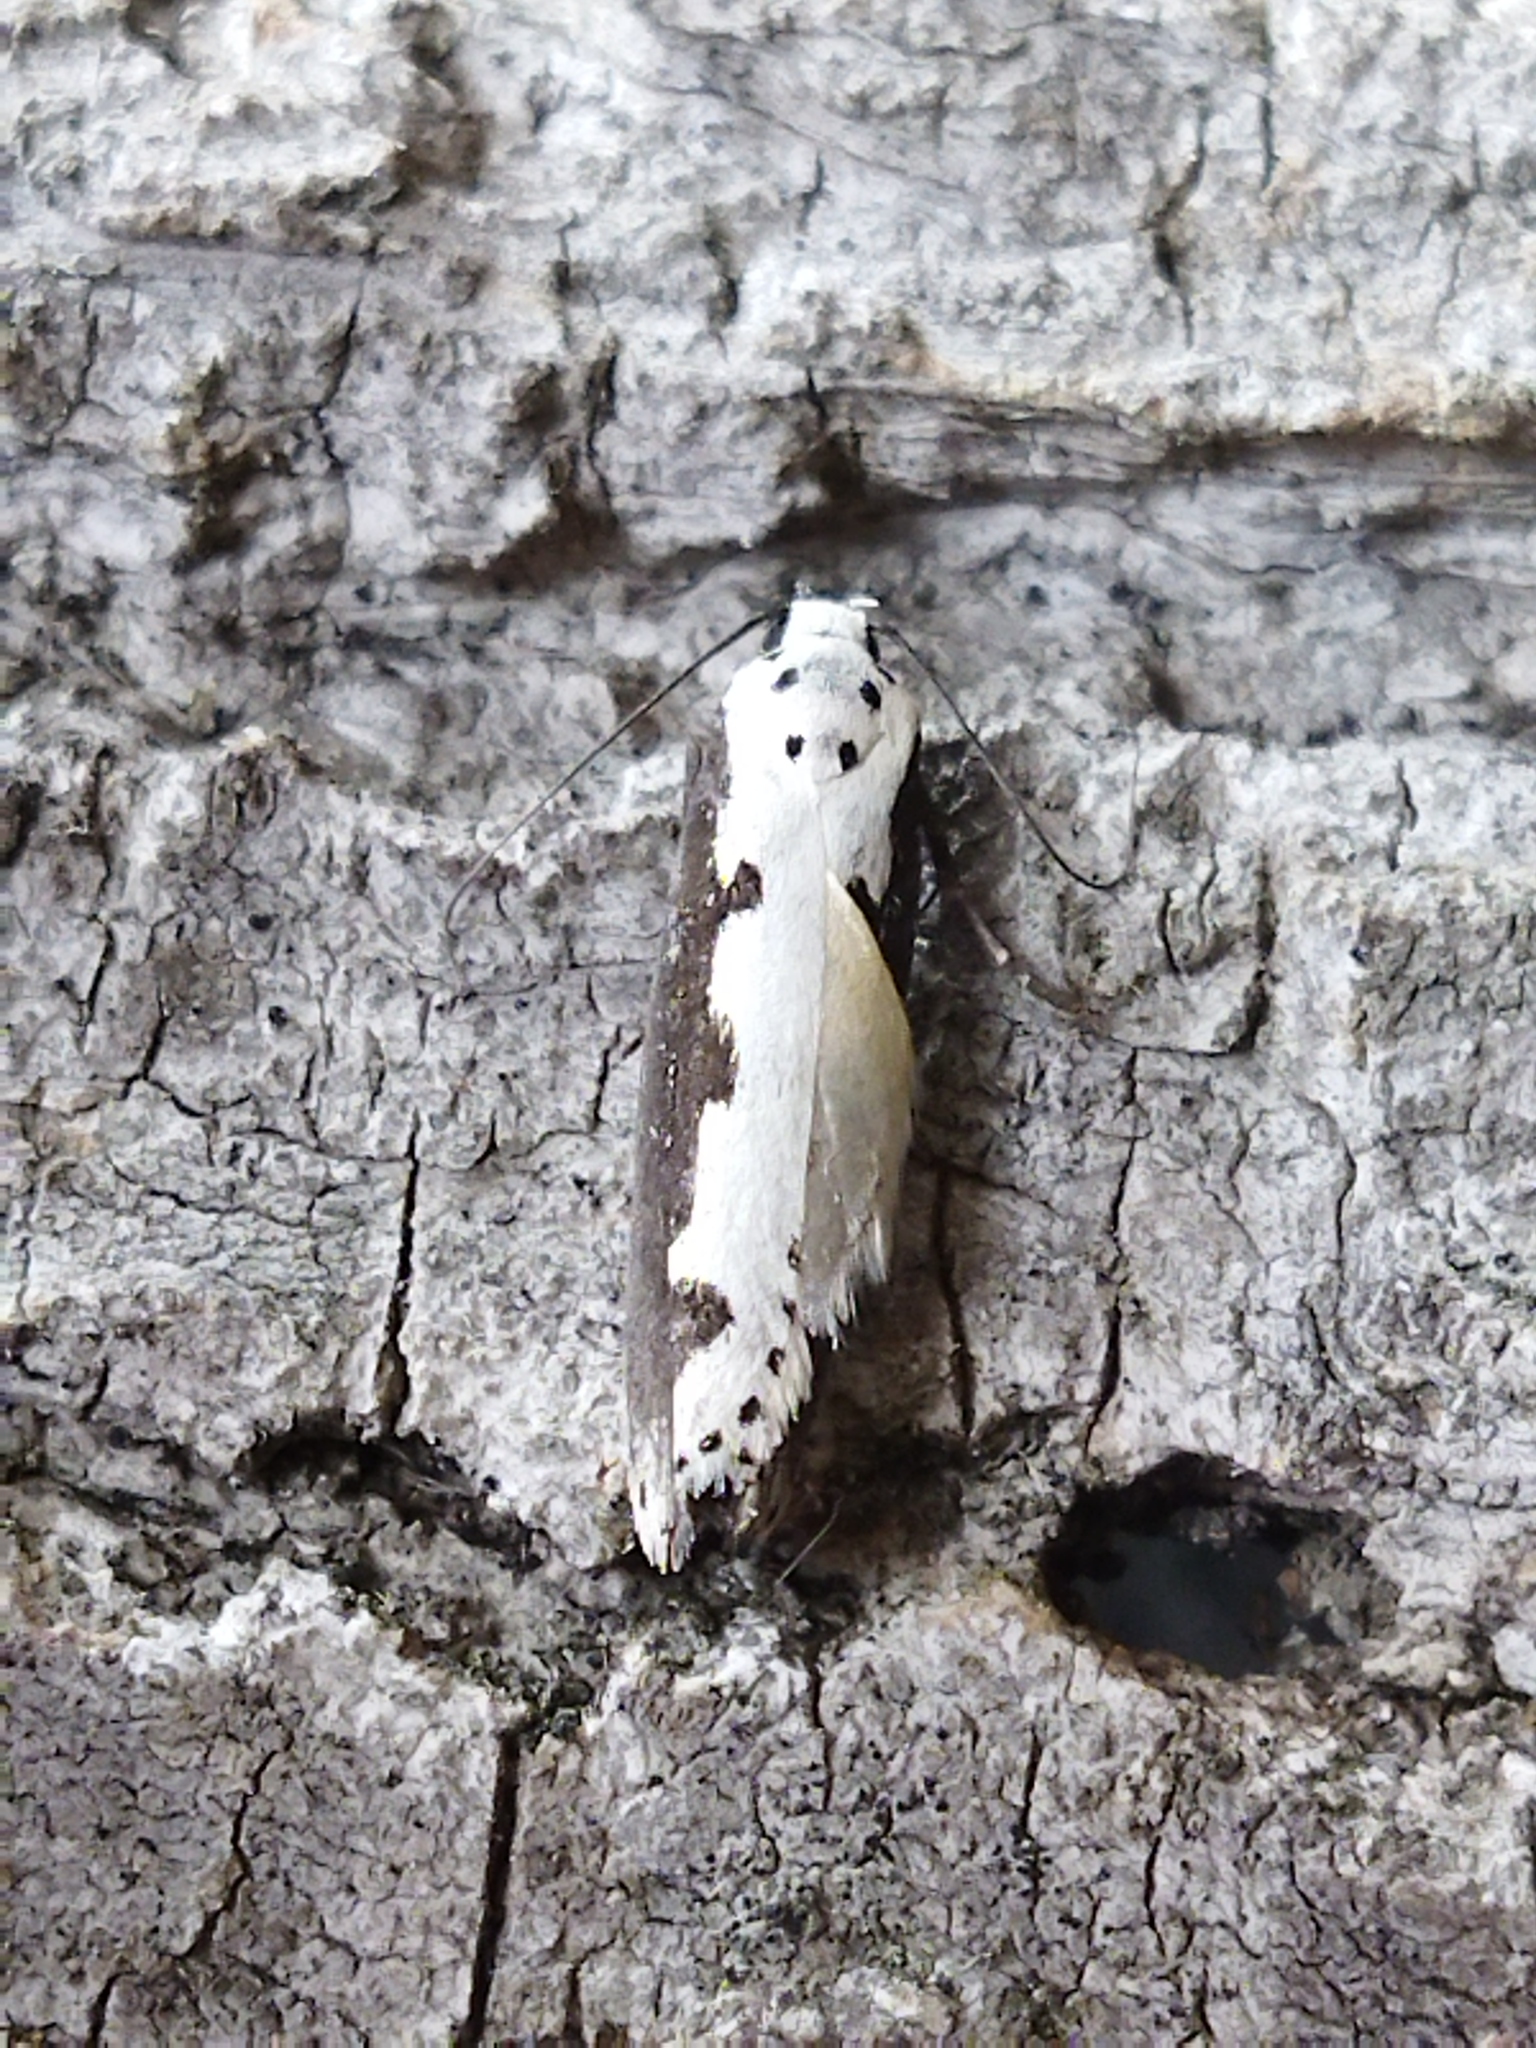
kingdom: Animalia
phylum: Arthropoda
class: Insecta
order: Lepidoptera
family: Ethmiidae
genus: Ethmia
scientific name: Ethmia bipunctella
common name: Bordered ermel
